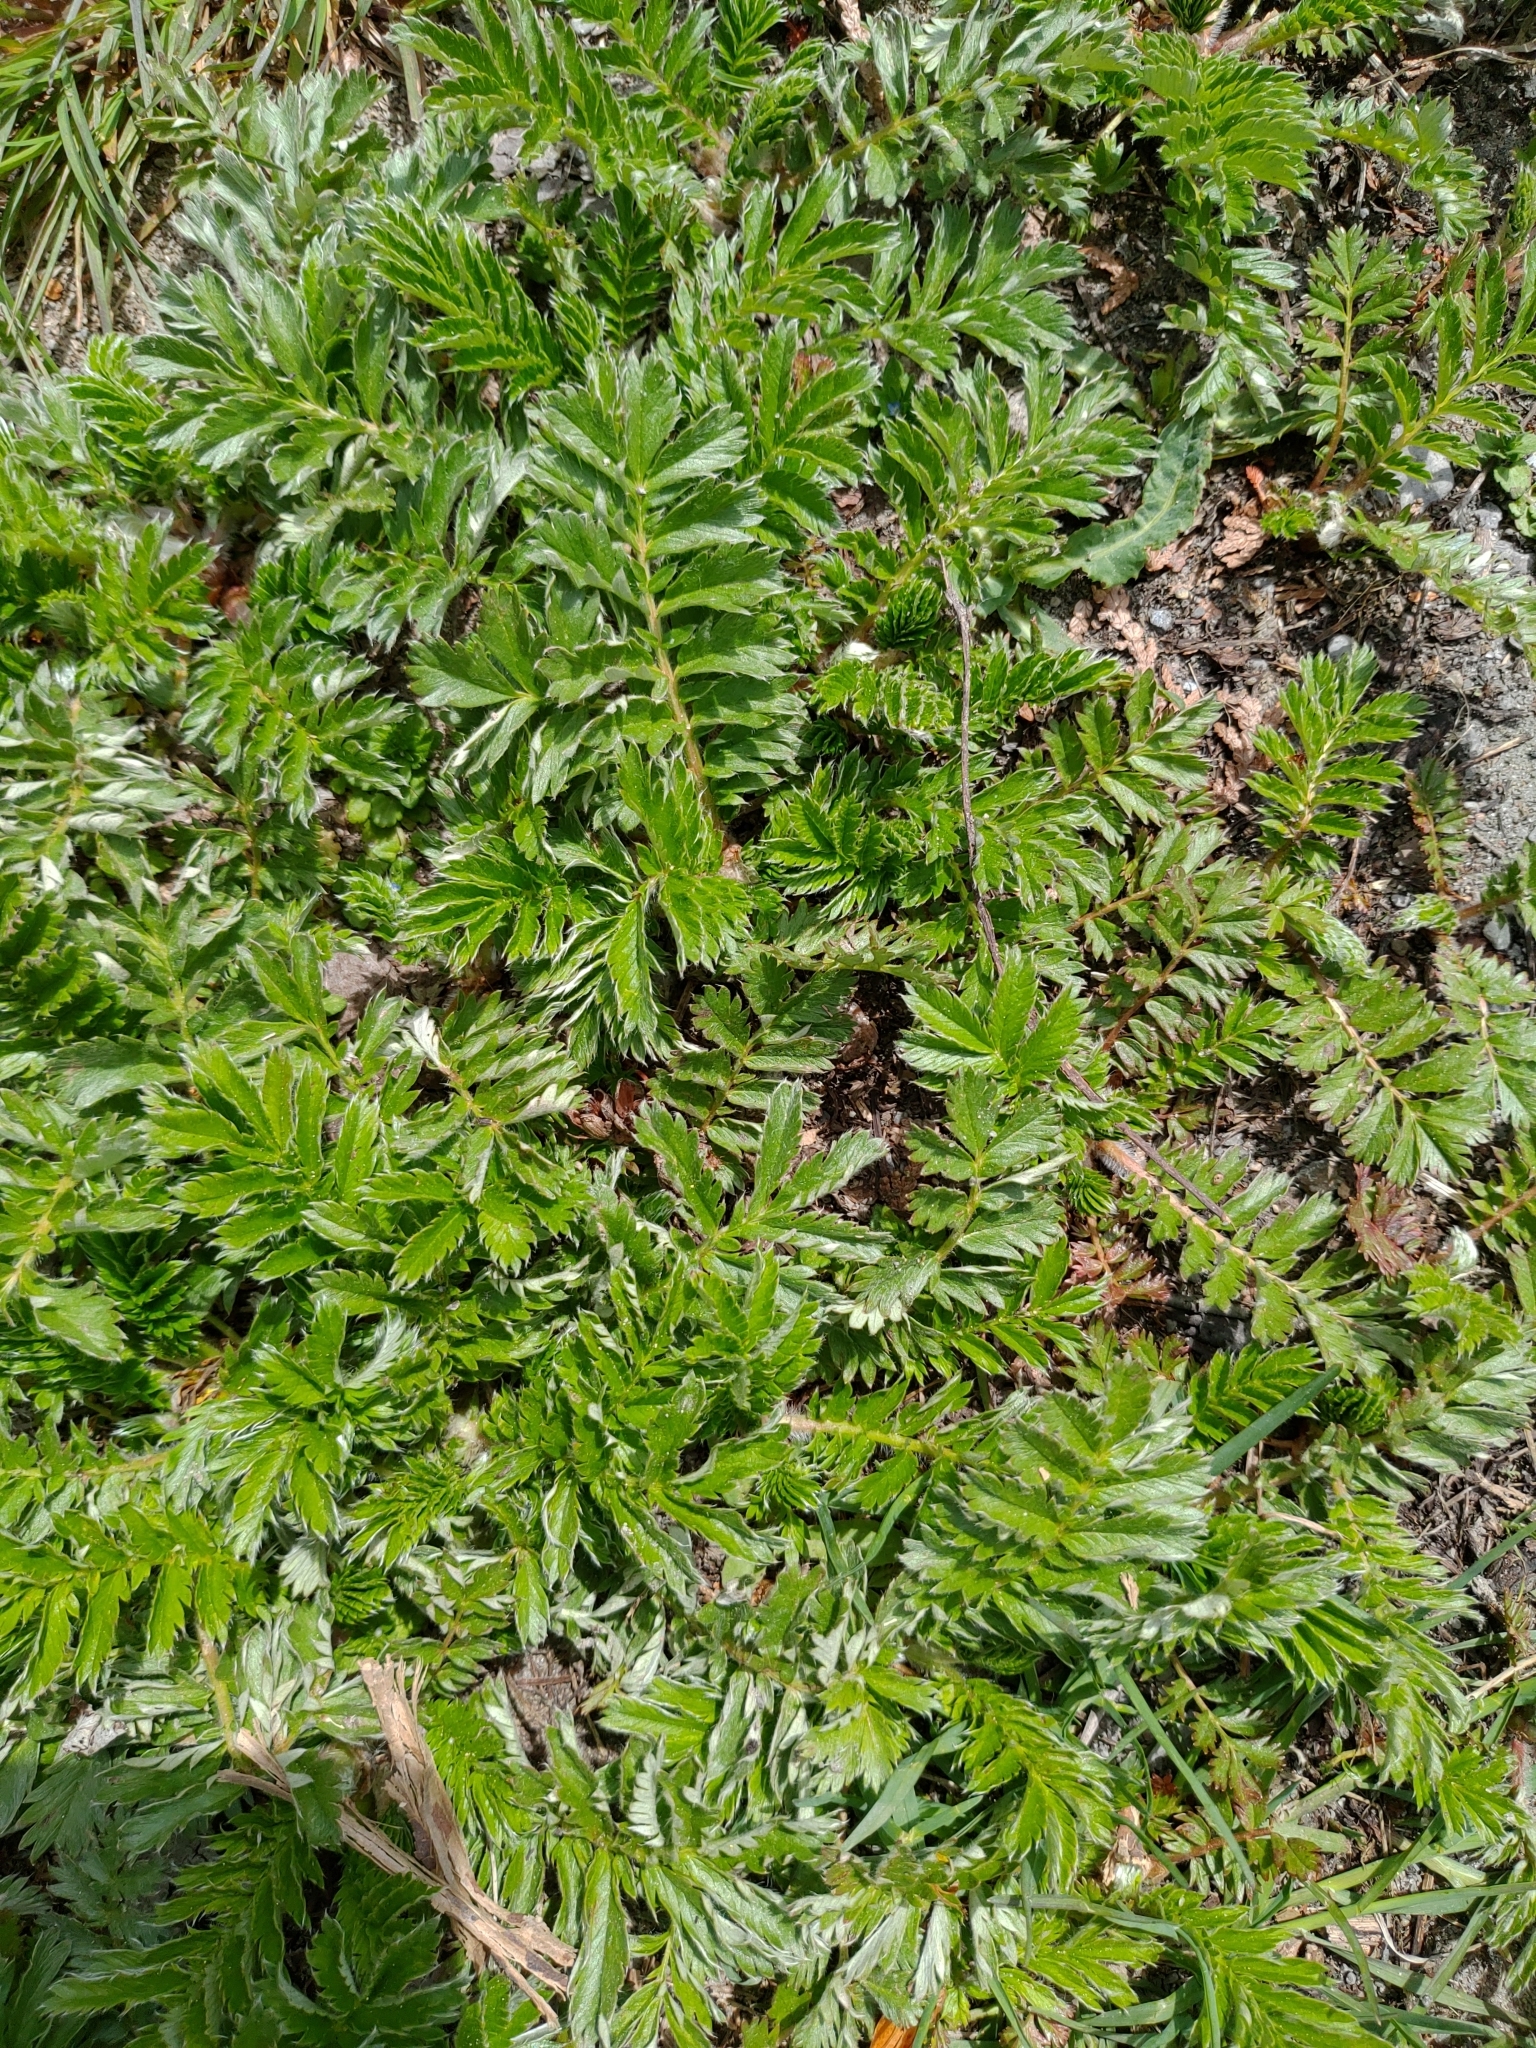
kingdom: Plantae
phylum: Tracheophyta
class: Magnoliopsida
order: Asterales
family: Asteraceae
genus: Tanacetum
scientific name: Tanacetum vulgare
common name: Common tansy
